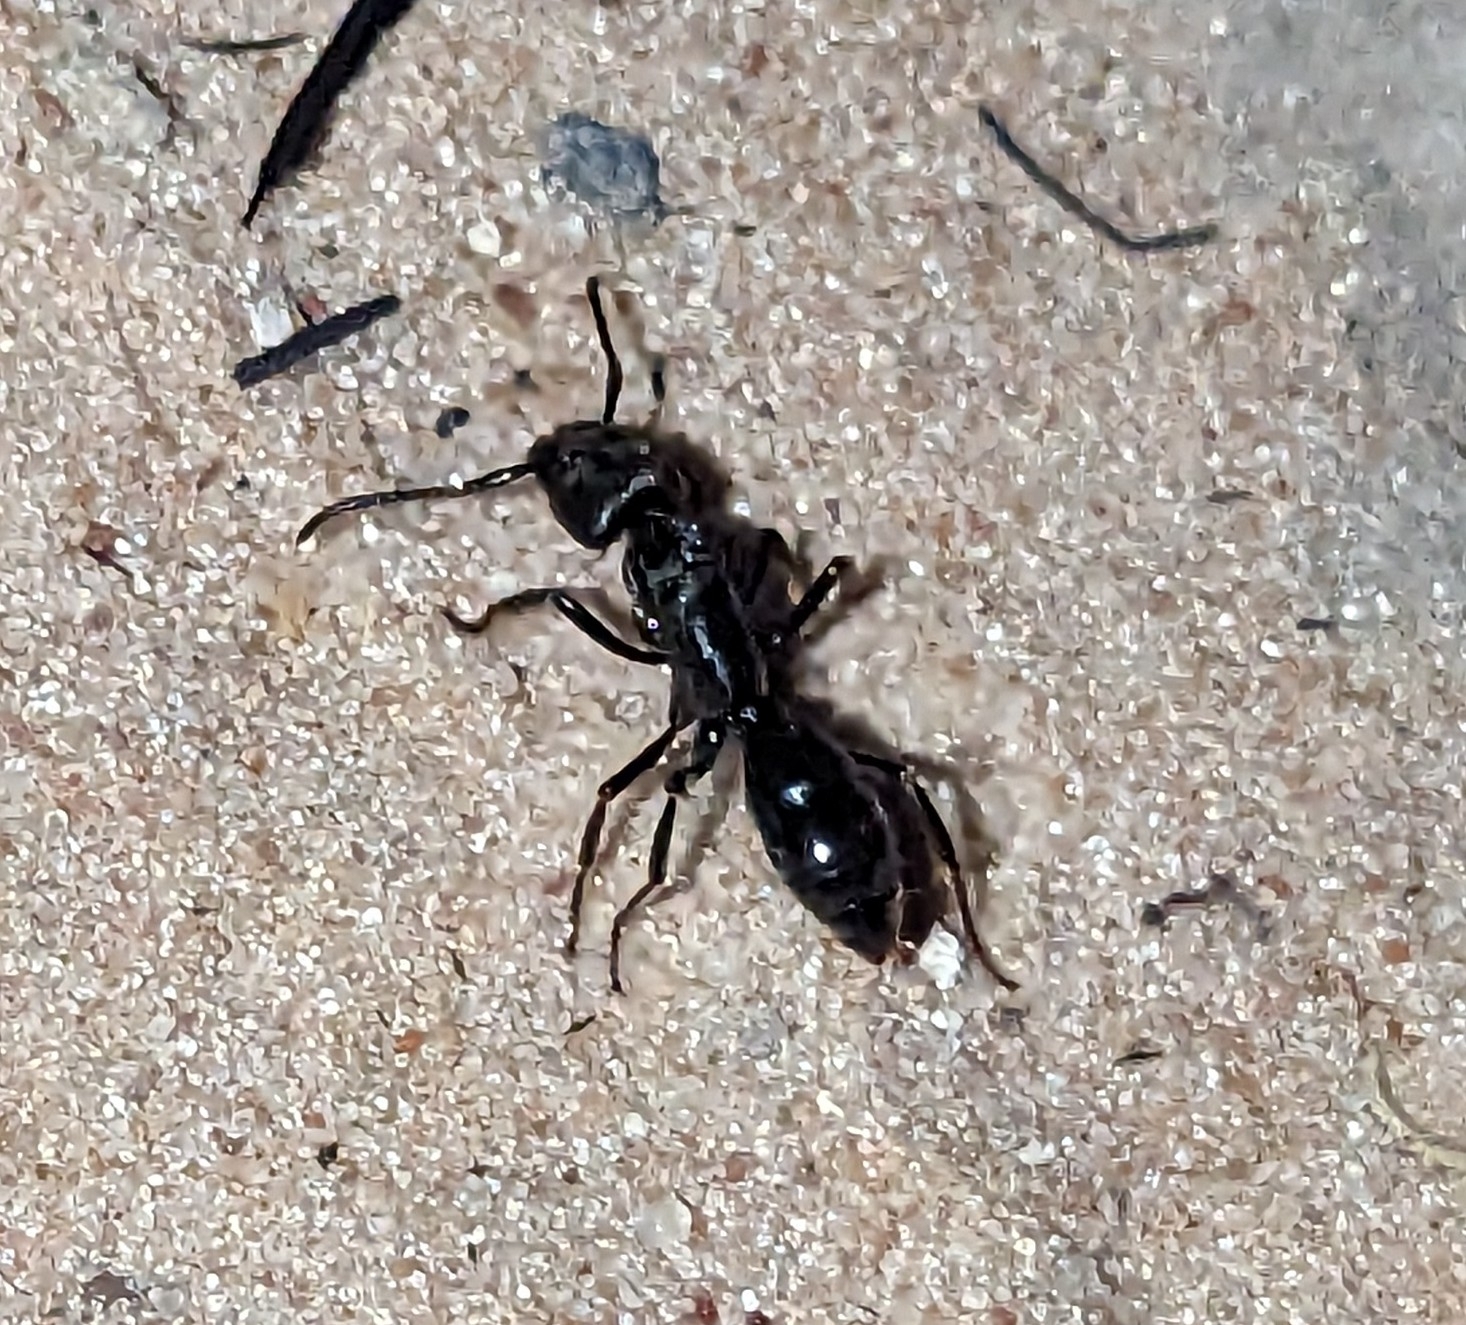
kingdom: Animalia
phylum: Arthropoda
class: Insecta
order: Hymenoptera
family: Formicidae
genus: Paltothyreus
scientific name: Paltothyreus tarsatus
